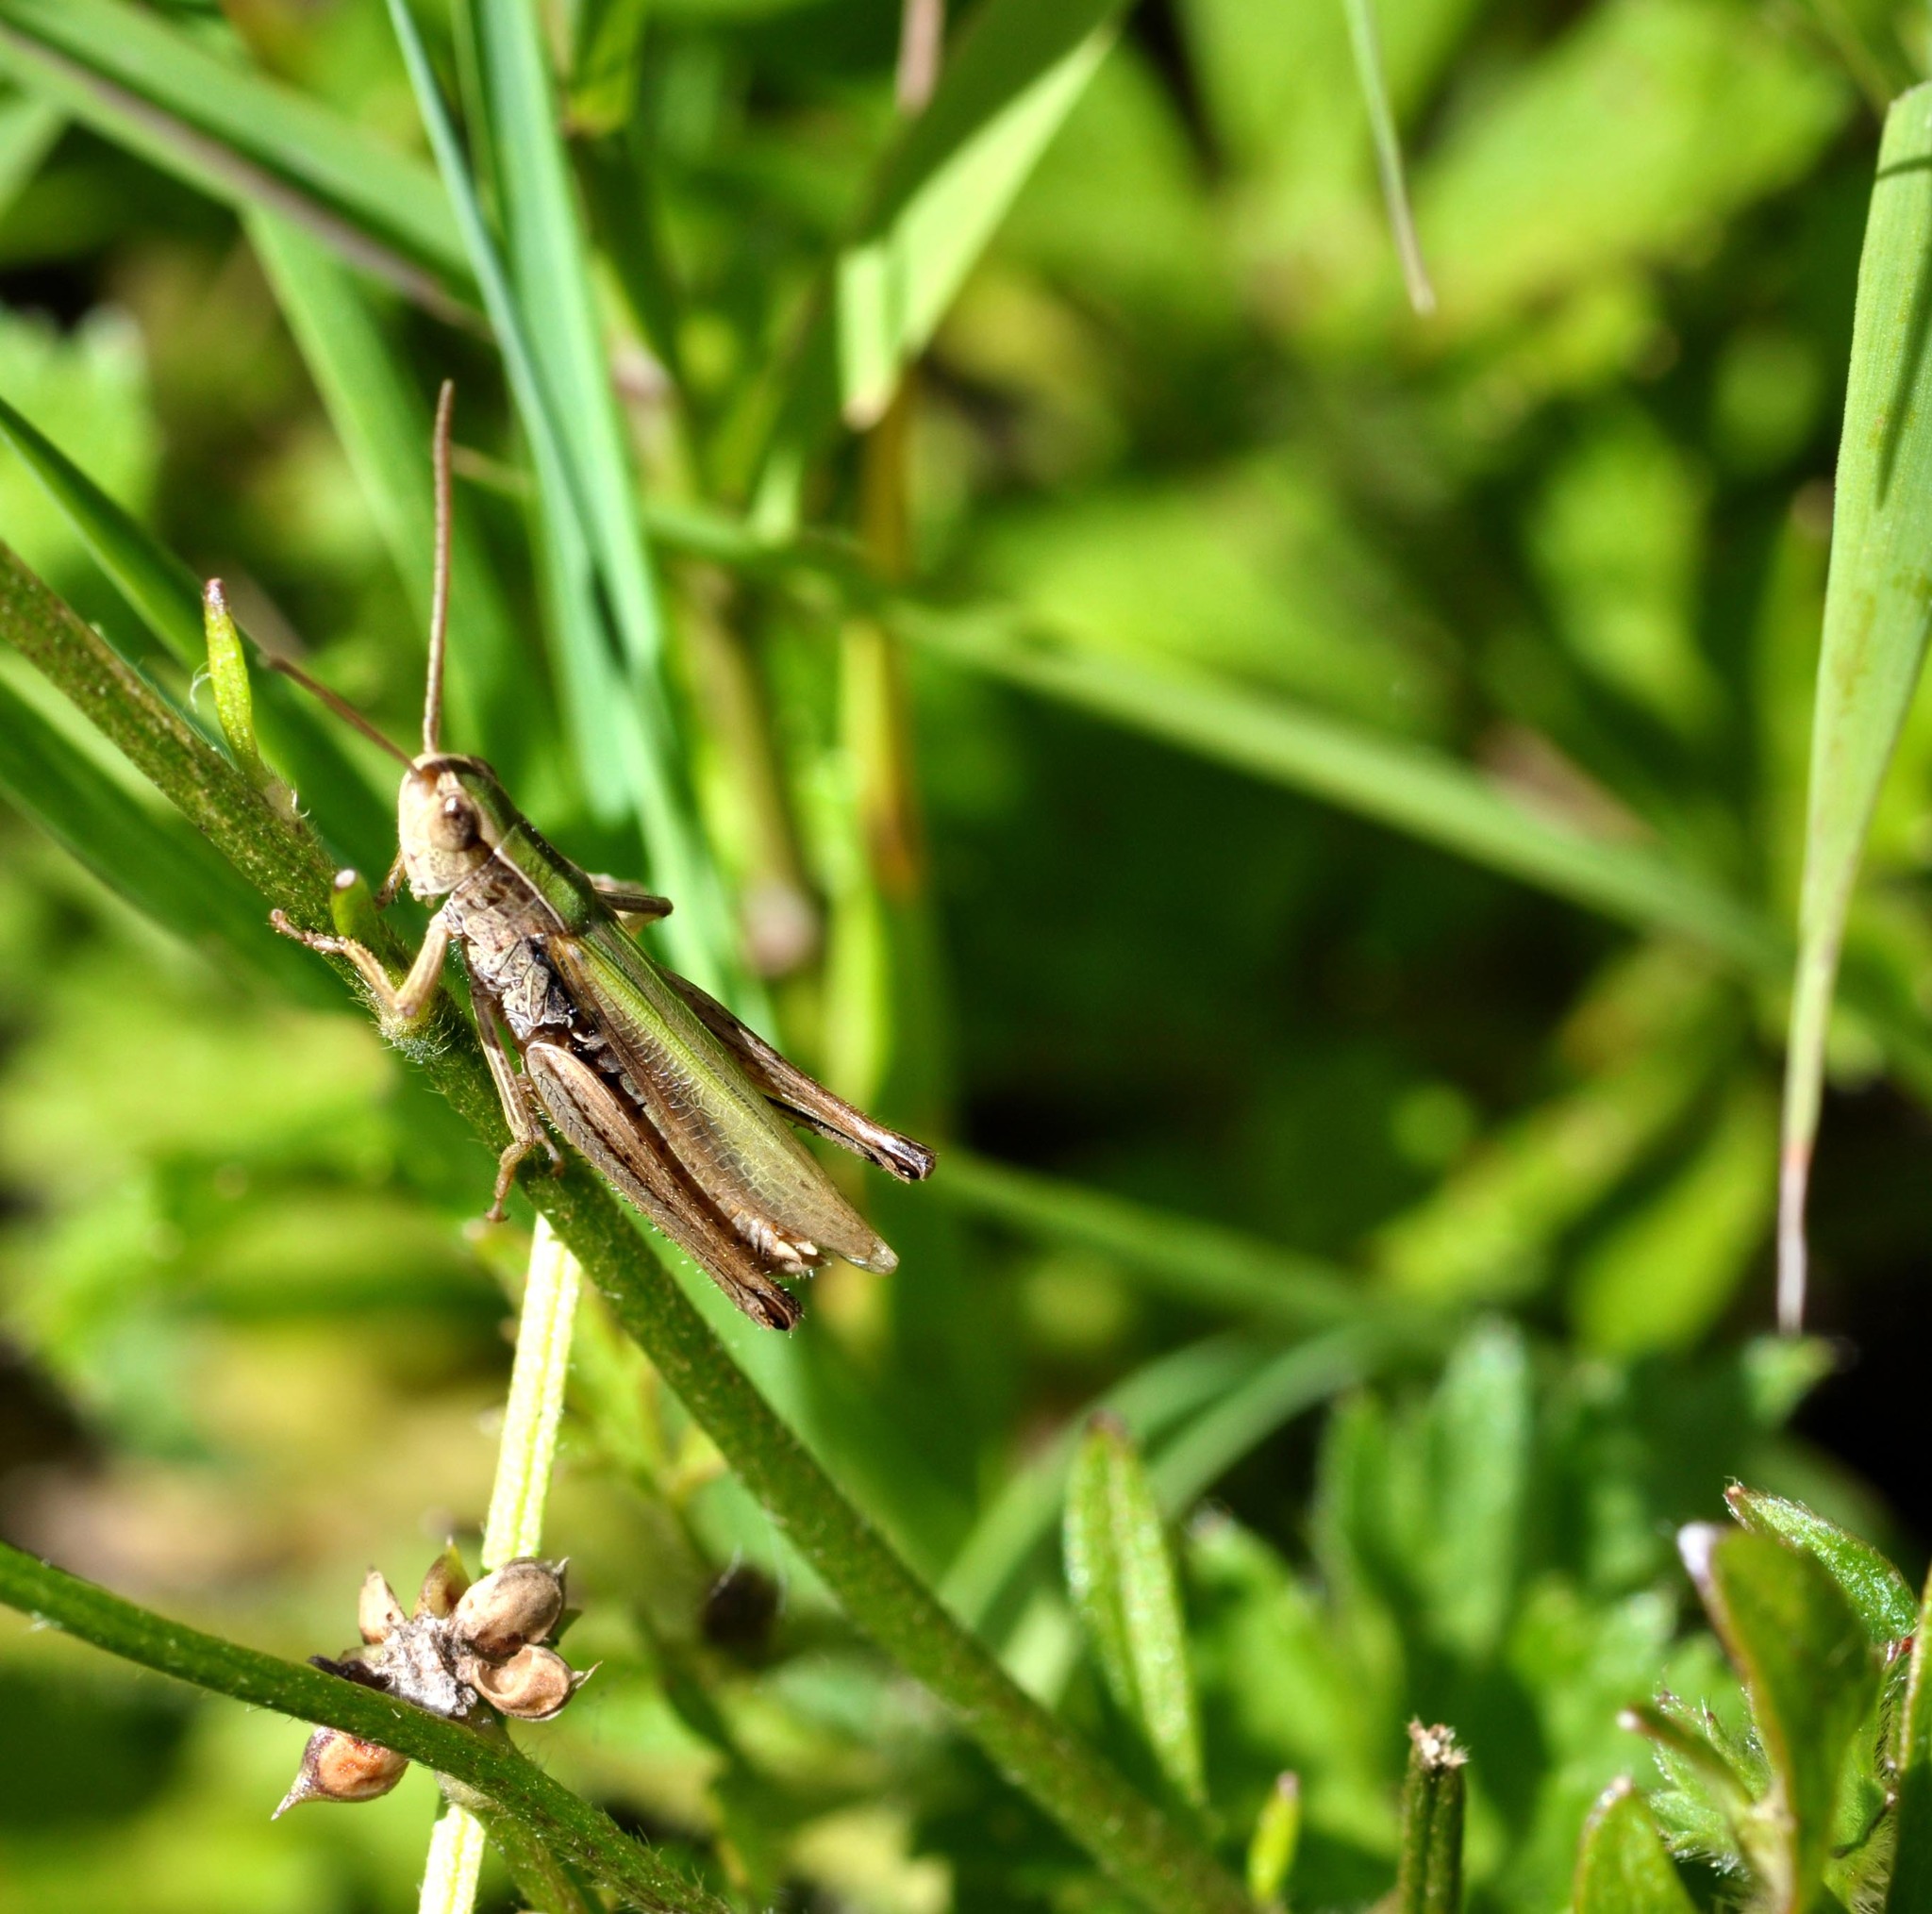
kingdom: Animalia
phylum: Arthropoda
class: Insecta
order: Orthoptera
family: Acrididae
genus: Chorthippus
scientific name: Chorthippus albomarginatus
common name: Lesser marsh grasshopper
